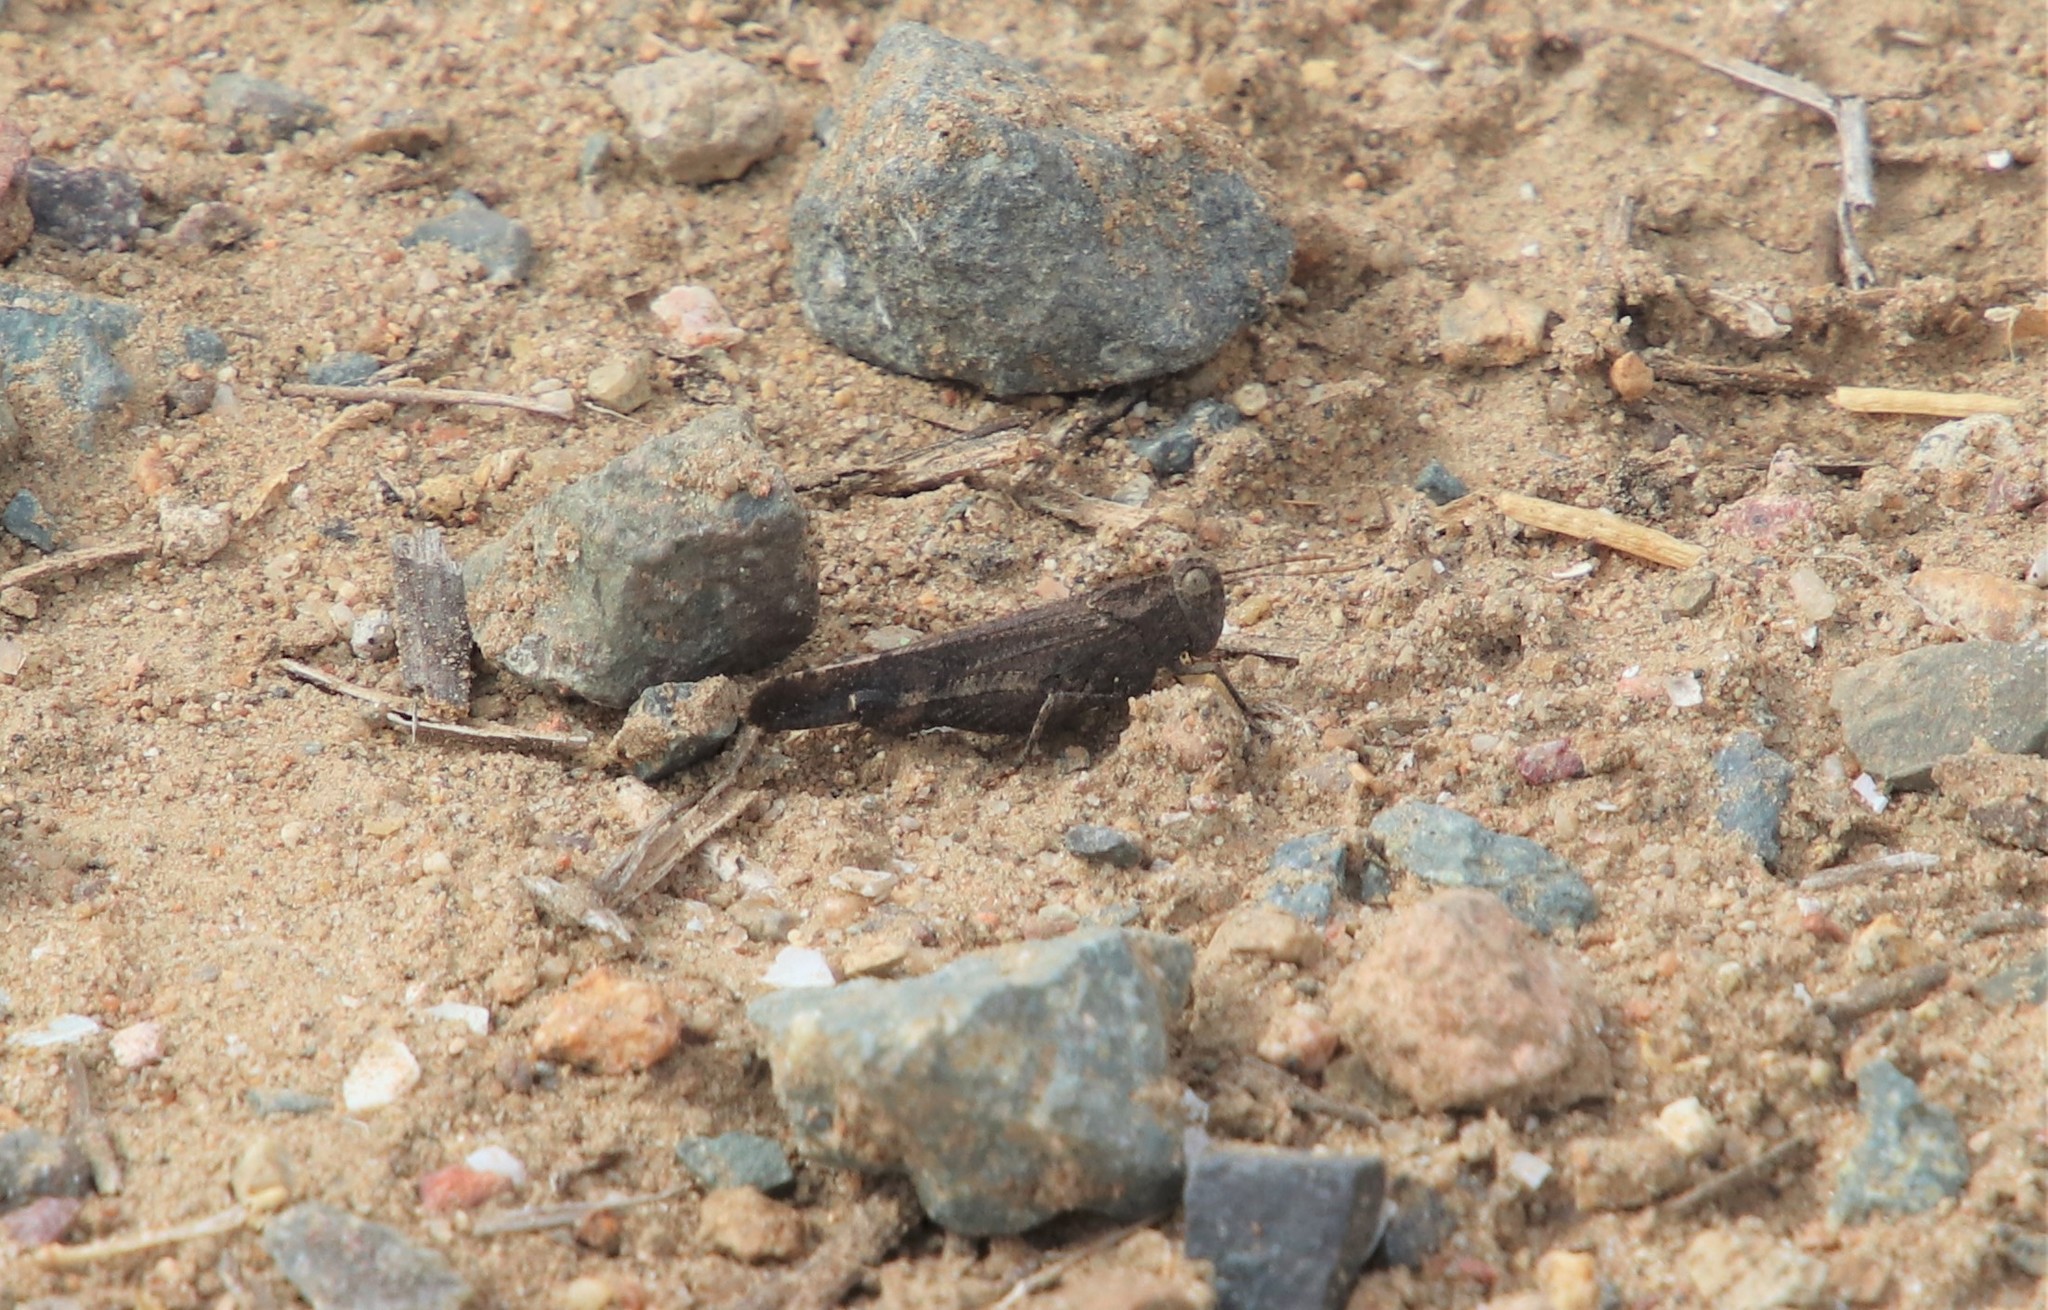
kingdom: Animalia
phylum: Arthropoda
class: Insecta
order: Orthoptera
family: Acrididae
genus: Lactista
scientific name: Lactista gibbosus
